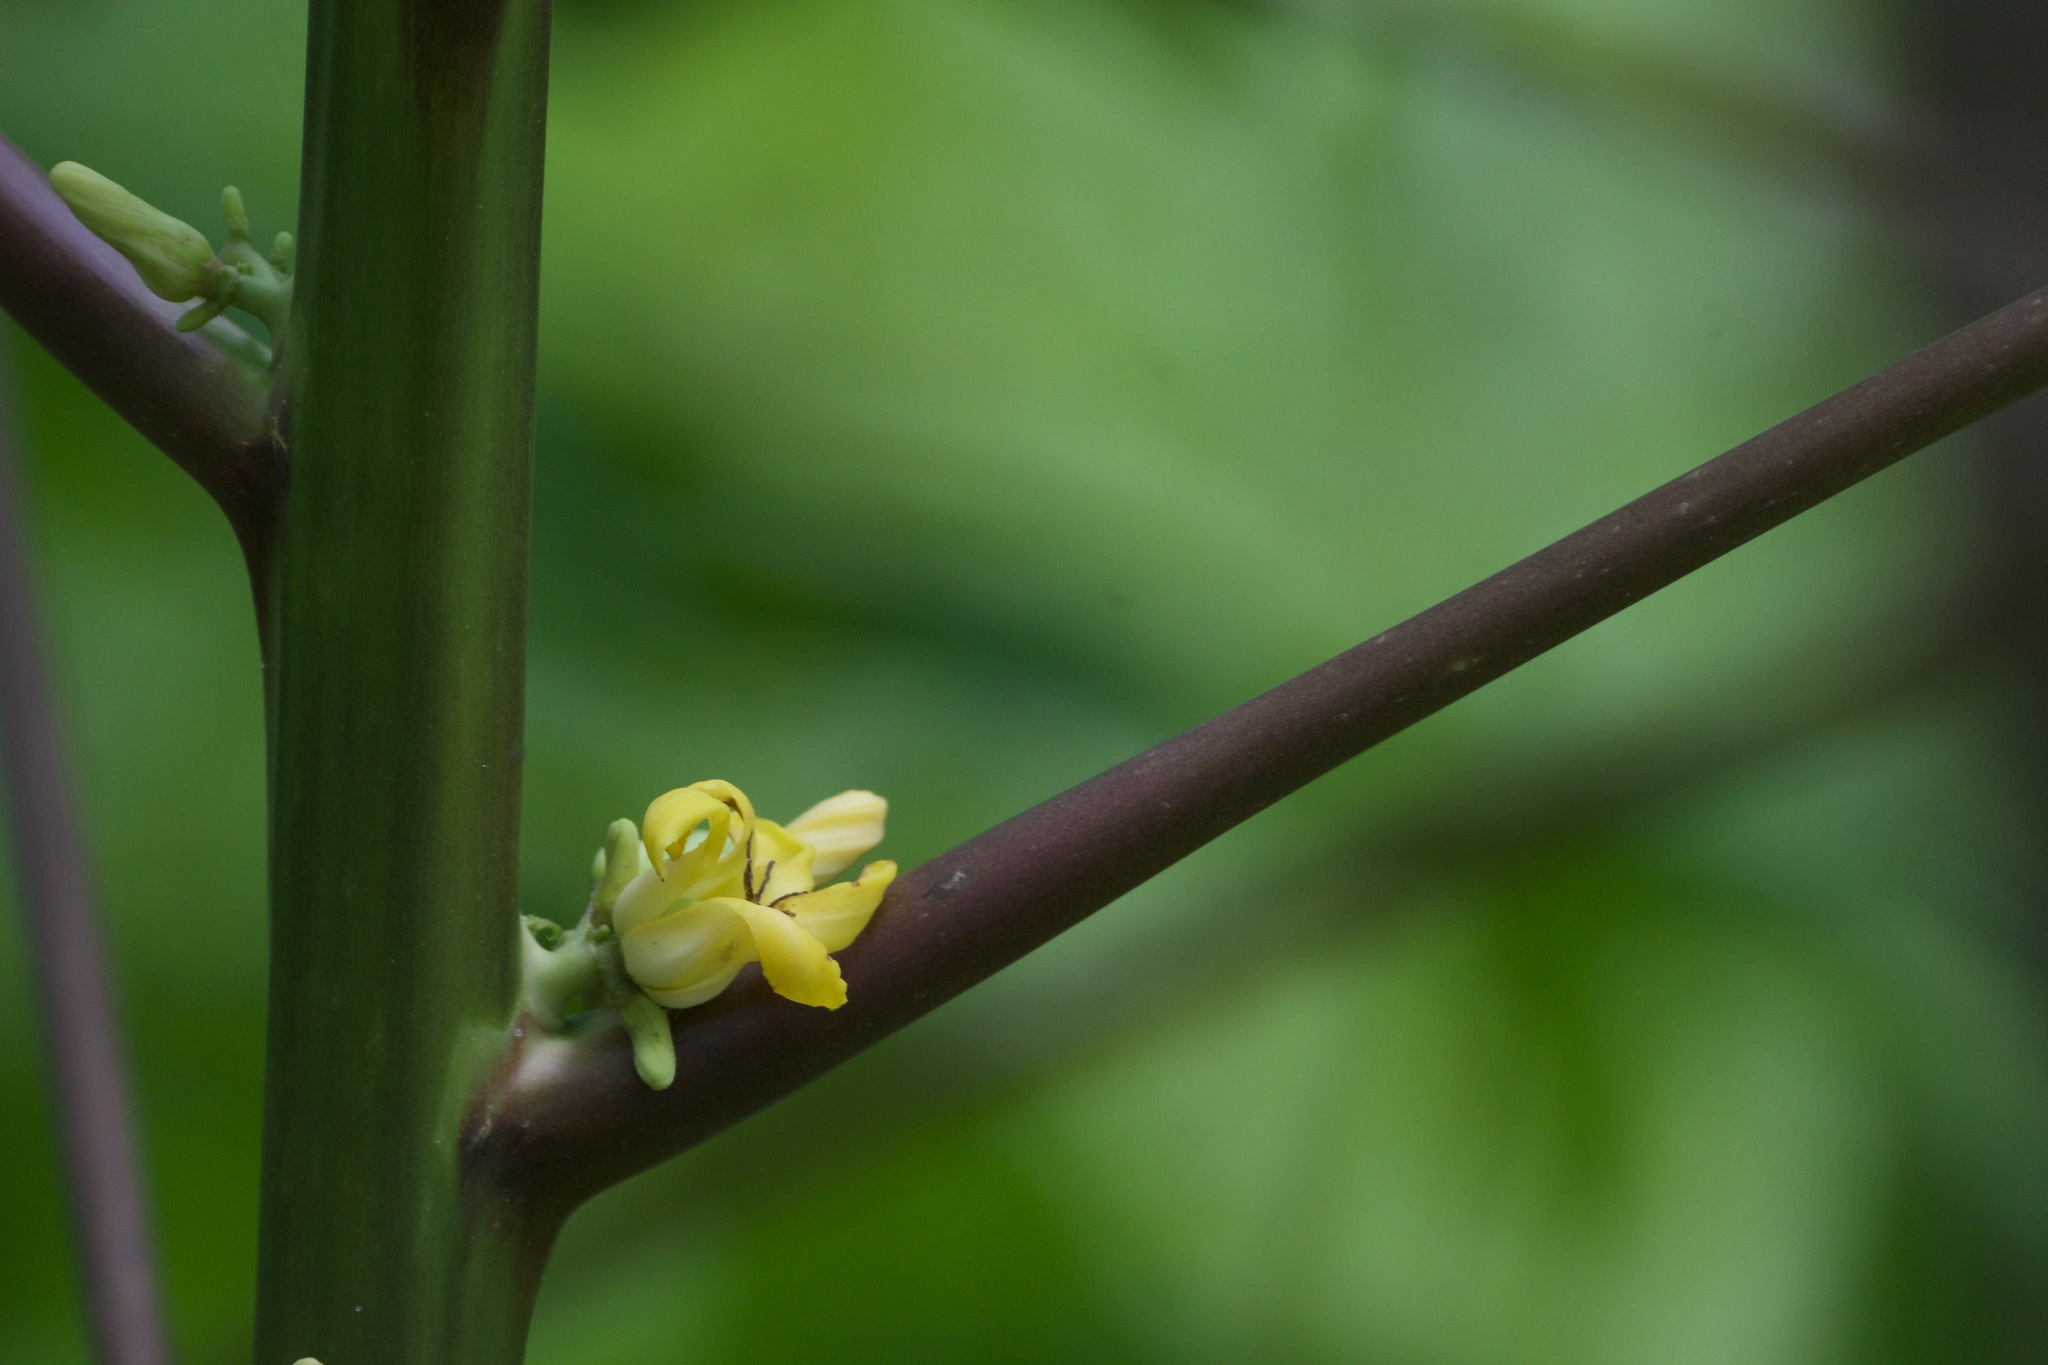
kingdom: Plantae
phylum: Tracheophyta
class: Magnoliopsida
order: Brassicales
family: Caricaceae
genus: Carica
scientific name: Carica papaya
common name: Papaya
